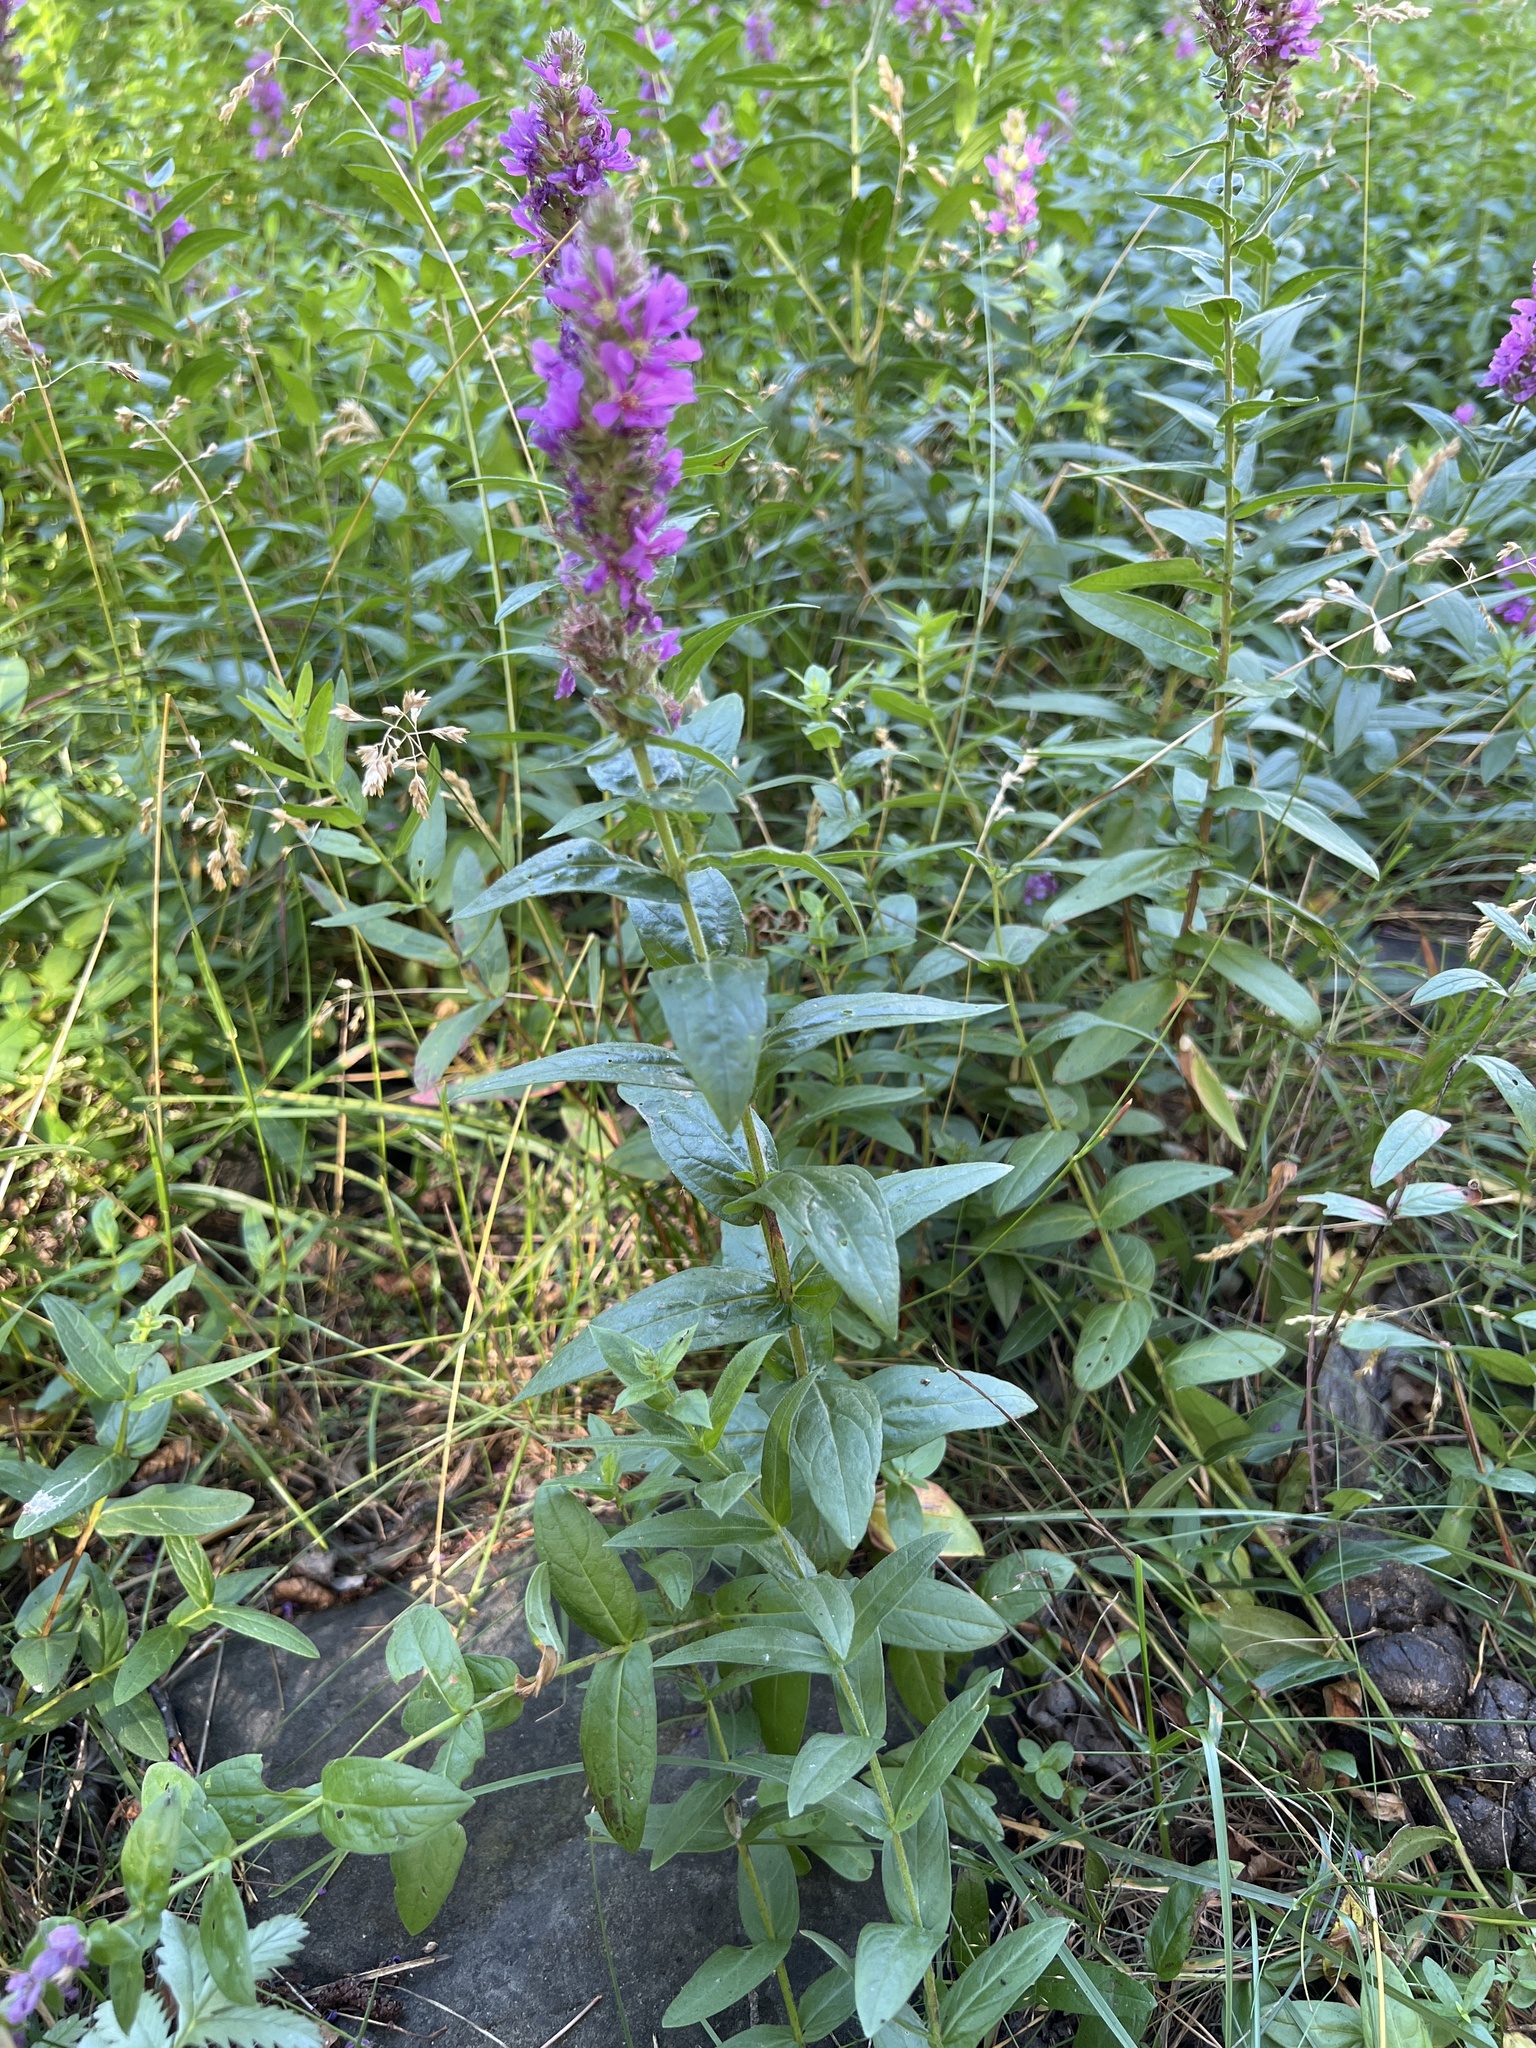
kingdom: Plantae
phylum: Tracheophyta
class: Magnoliopsida
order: Myrtales
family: Lythraceae
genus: Lythrum
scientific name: Lythrum salicaria
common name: Purple loosestrife
